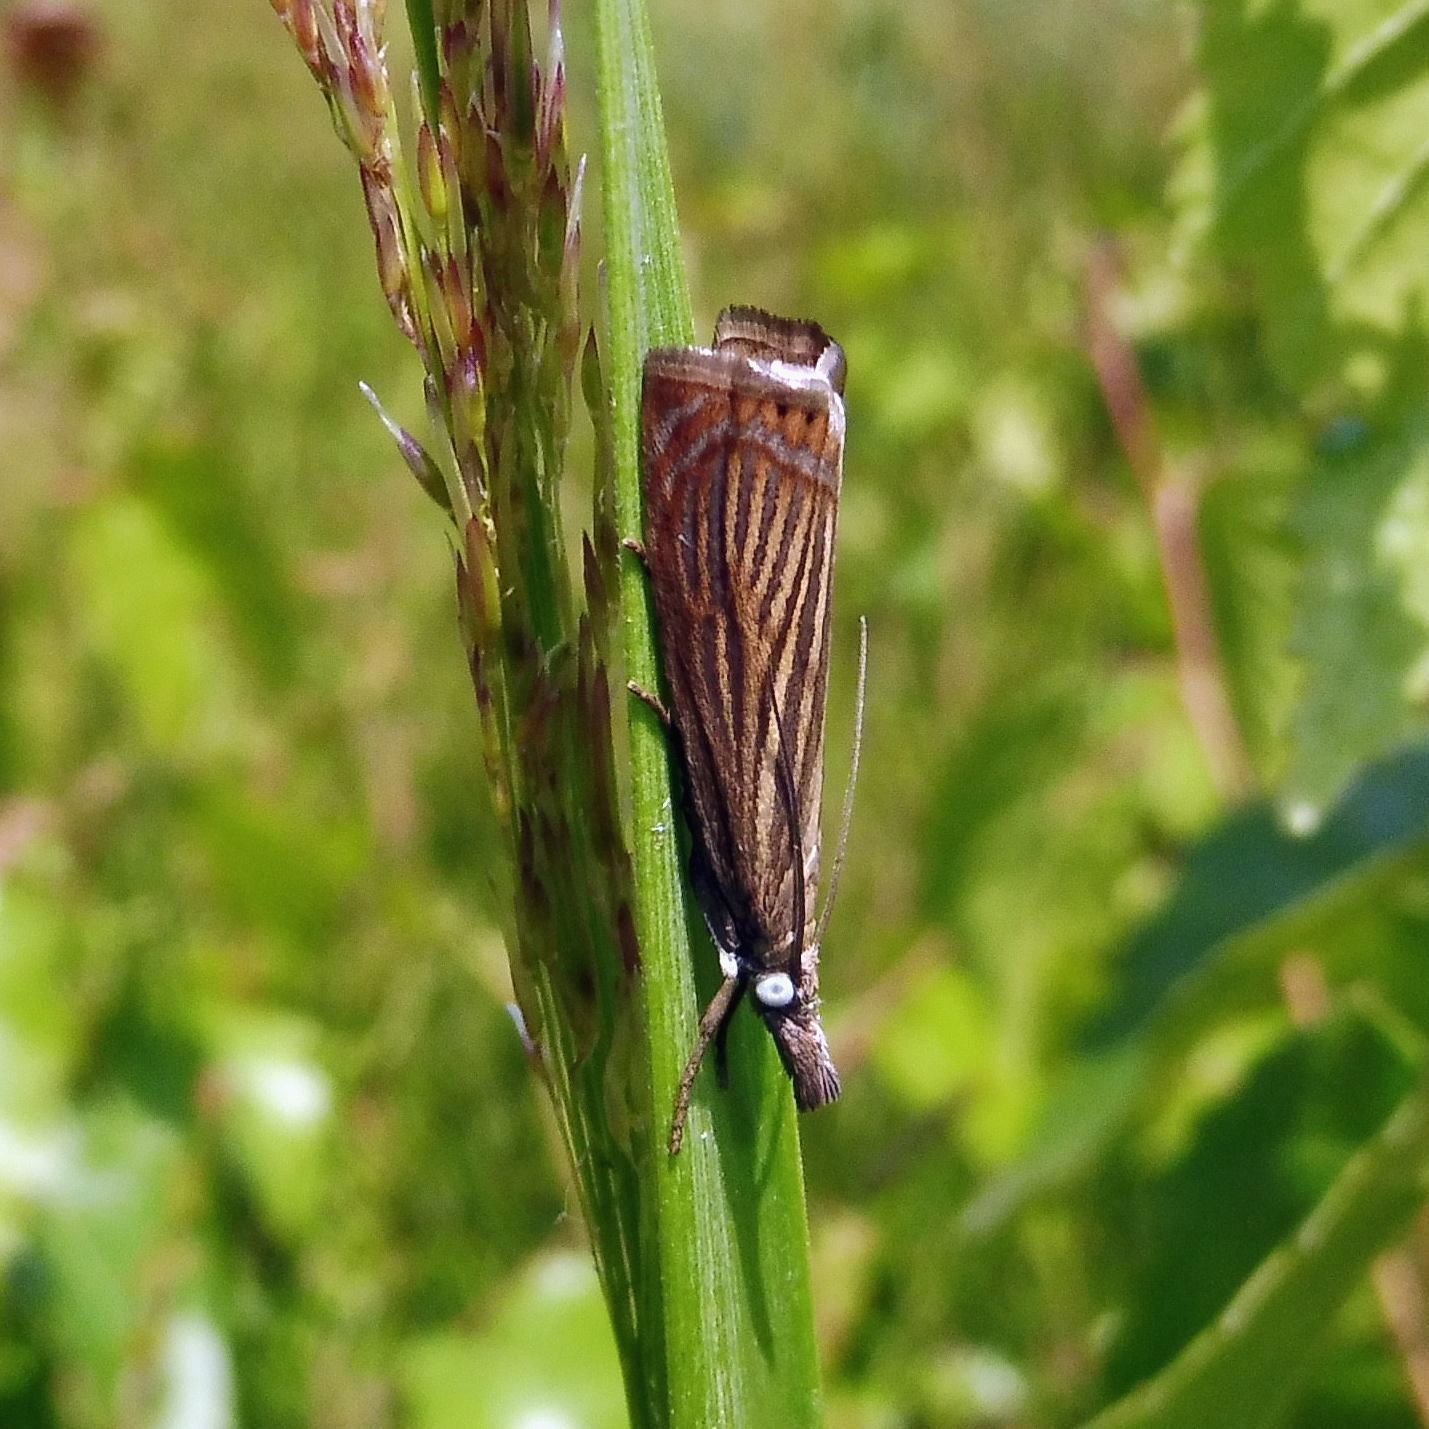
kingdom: Animalia
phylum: Arthropoda
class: Insecta
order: Lepidoptera
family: Crambidae
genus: Chrysoteuchia
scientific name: Chrysoteuchia culmella
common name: Garden grass-veneer
